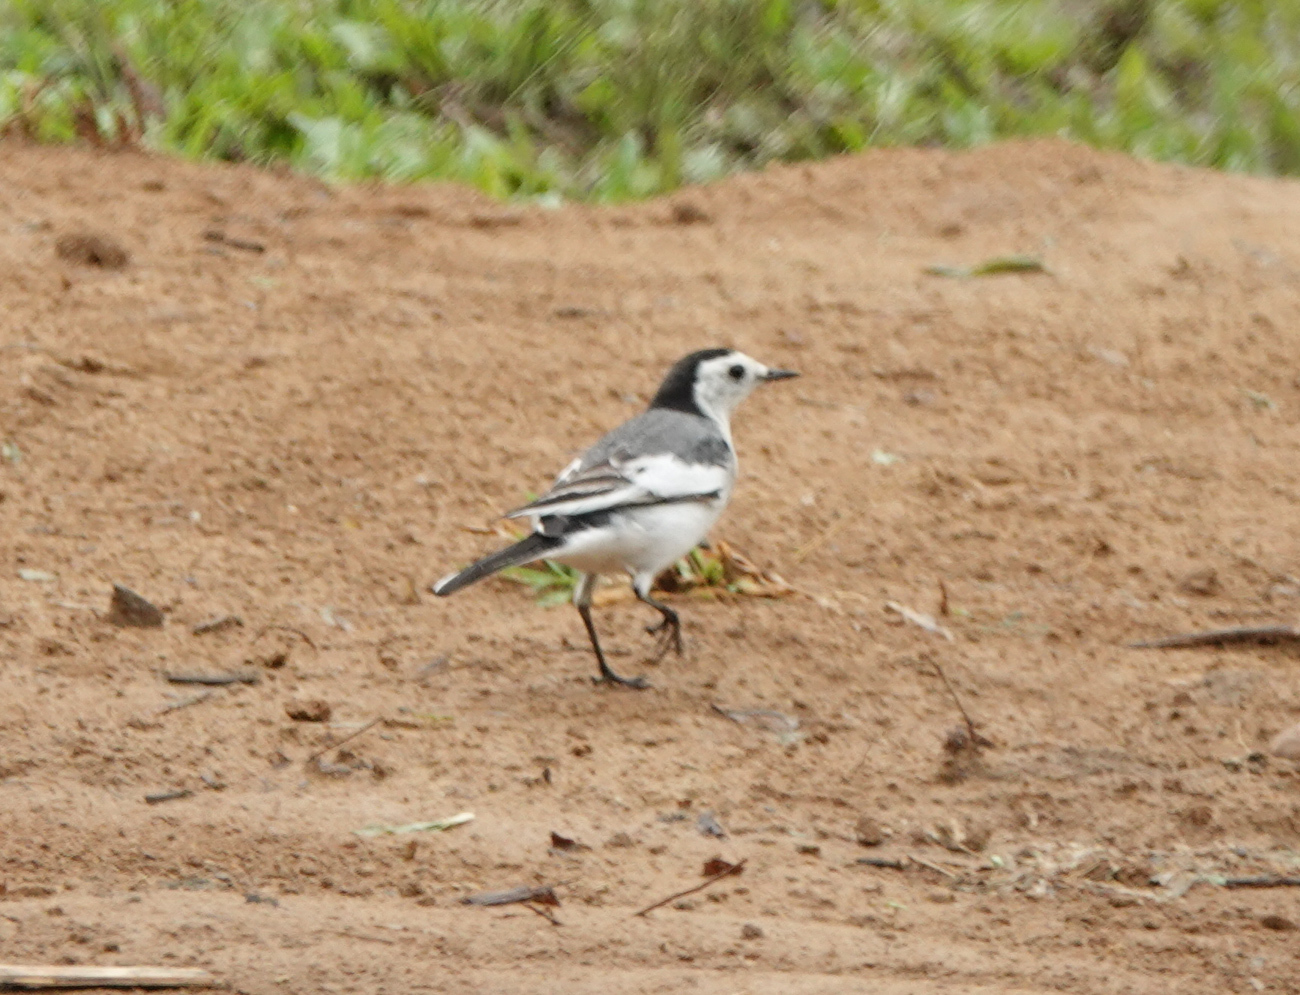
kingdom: Animalia
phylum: Chordata
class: Aves
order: Passeriformes
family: Motacillidae
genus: Motacilla
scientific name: Motacilla alba
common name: White wagtail
